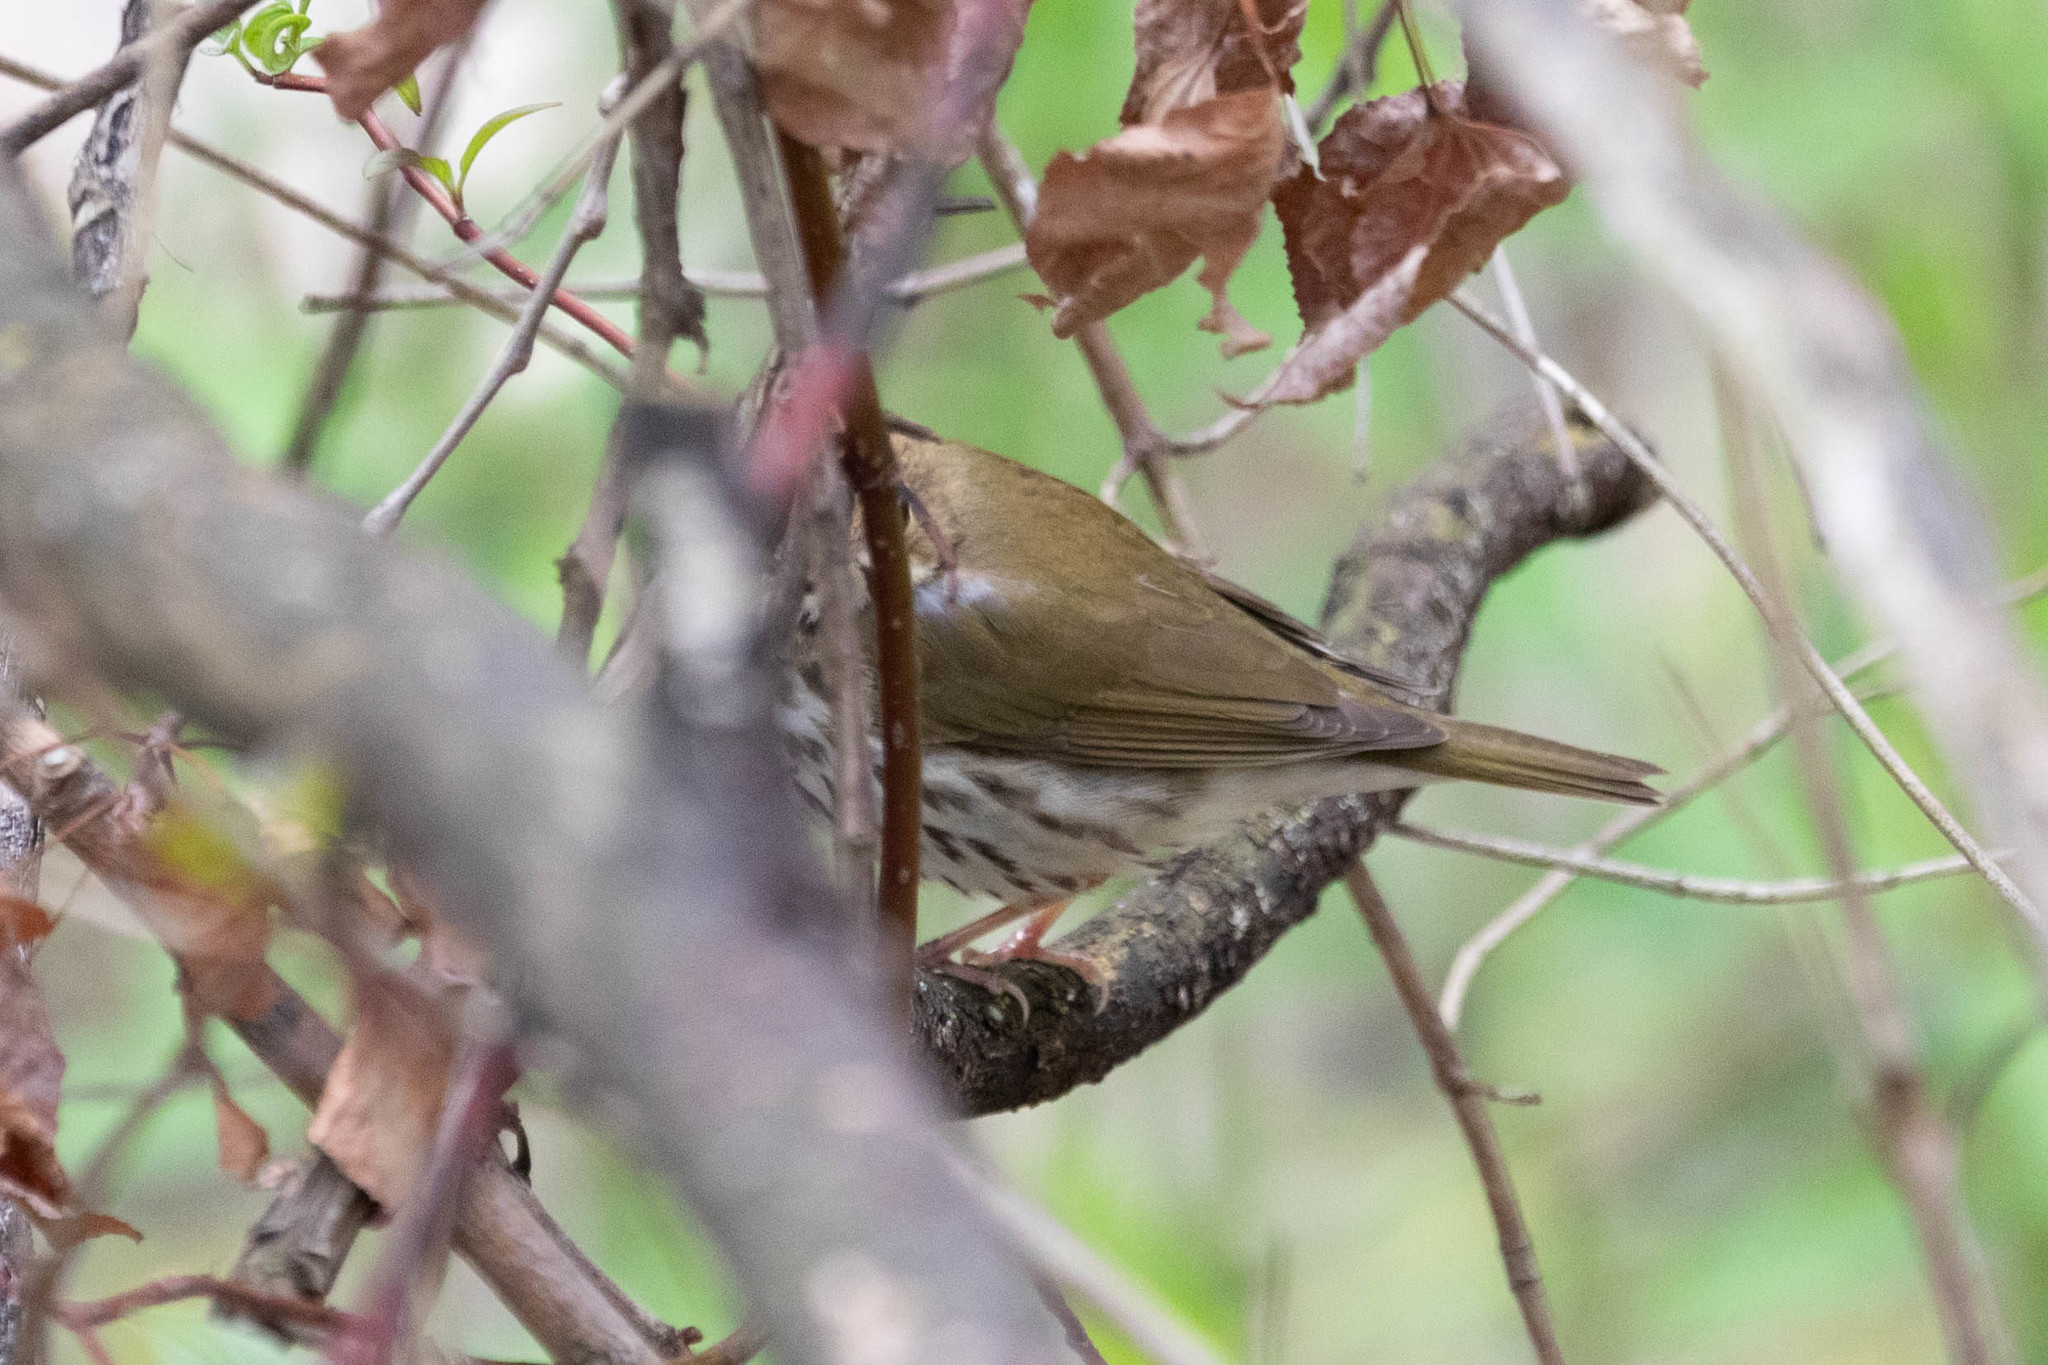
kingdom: Animalia
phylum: Chordata
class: Aves
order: Passeriformes
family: Parulidae
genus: Seiurus
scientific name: Seiurus aurocapilla
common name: Ovenbird
